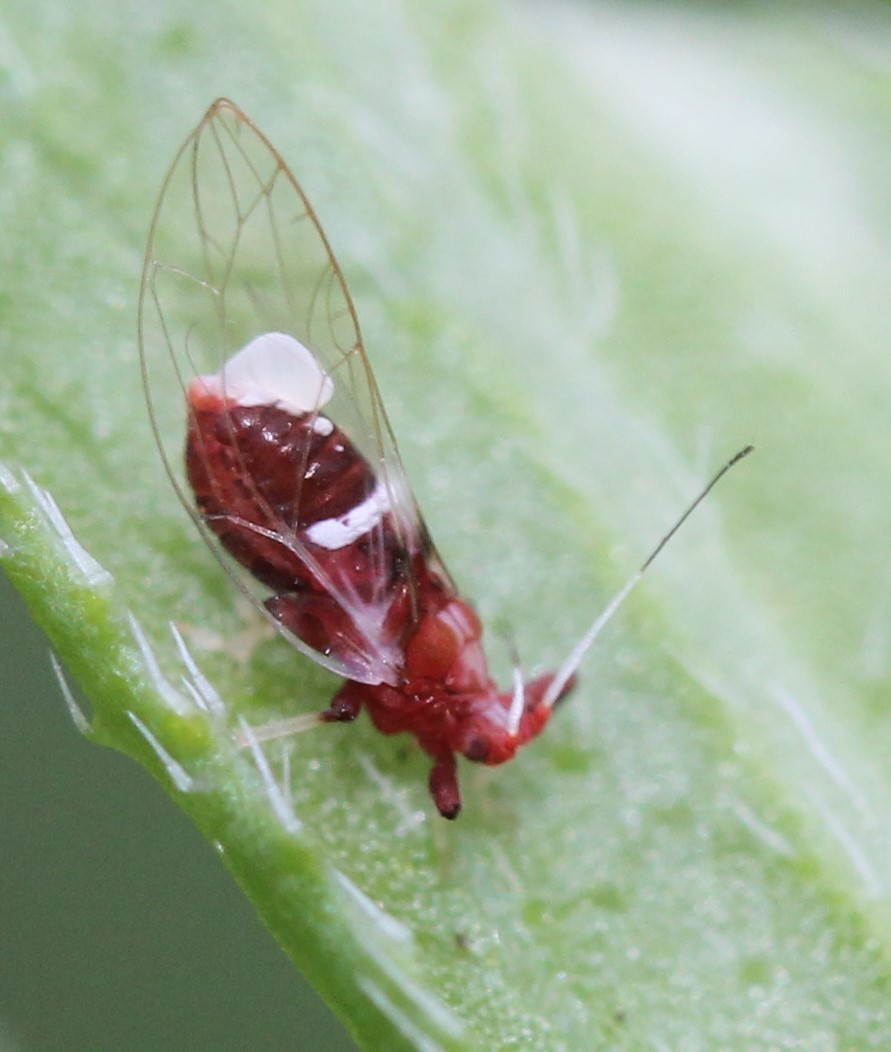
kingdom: Animalia
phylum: Arthropoda
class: Insecta
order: Hemiptera
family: Triozidae
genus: Bactericera
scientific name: Bactericera antennata
